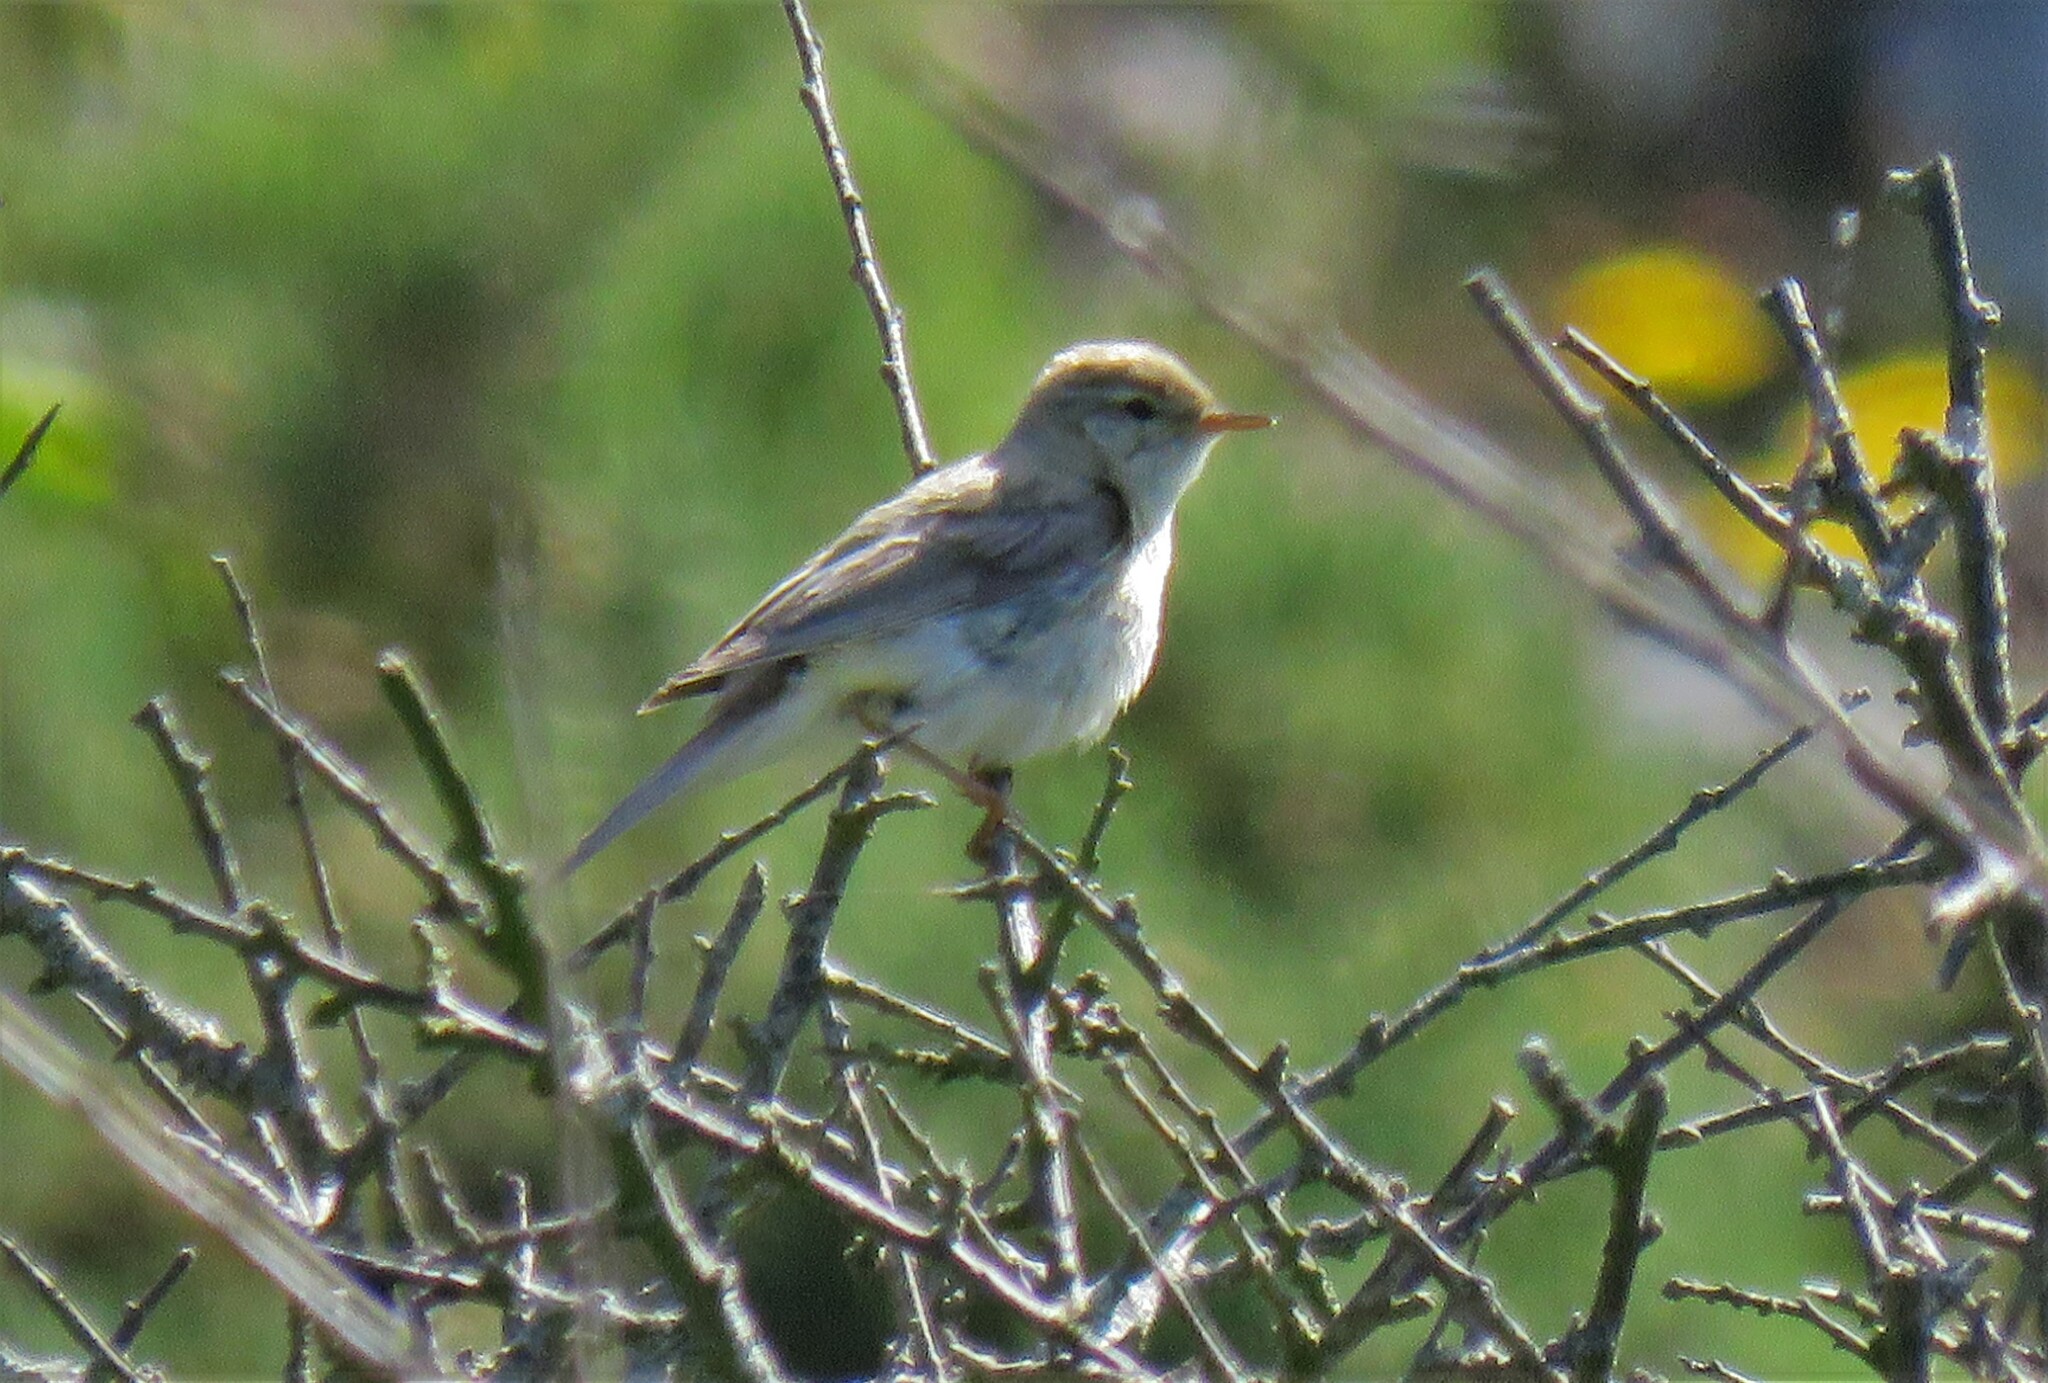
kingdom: Animalia
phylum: Chordata
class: Aves
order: Passeriformes
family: Phylloscopidae
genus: Phylloscopus
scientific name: Phylloscopus trochilus
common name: Willow warbler
